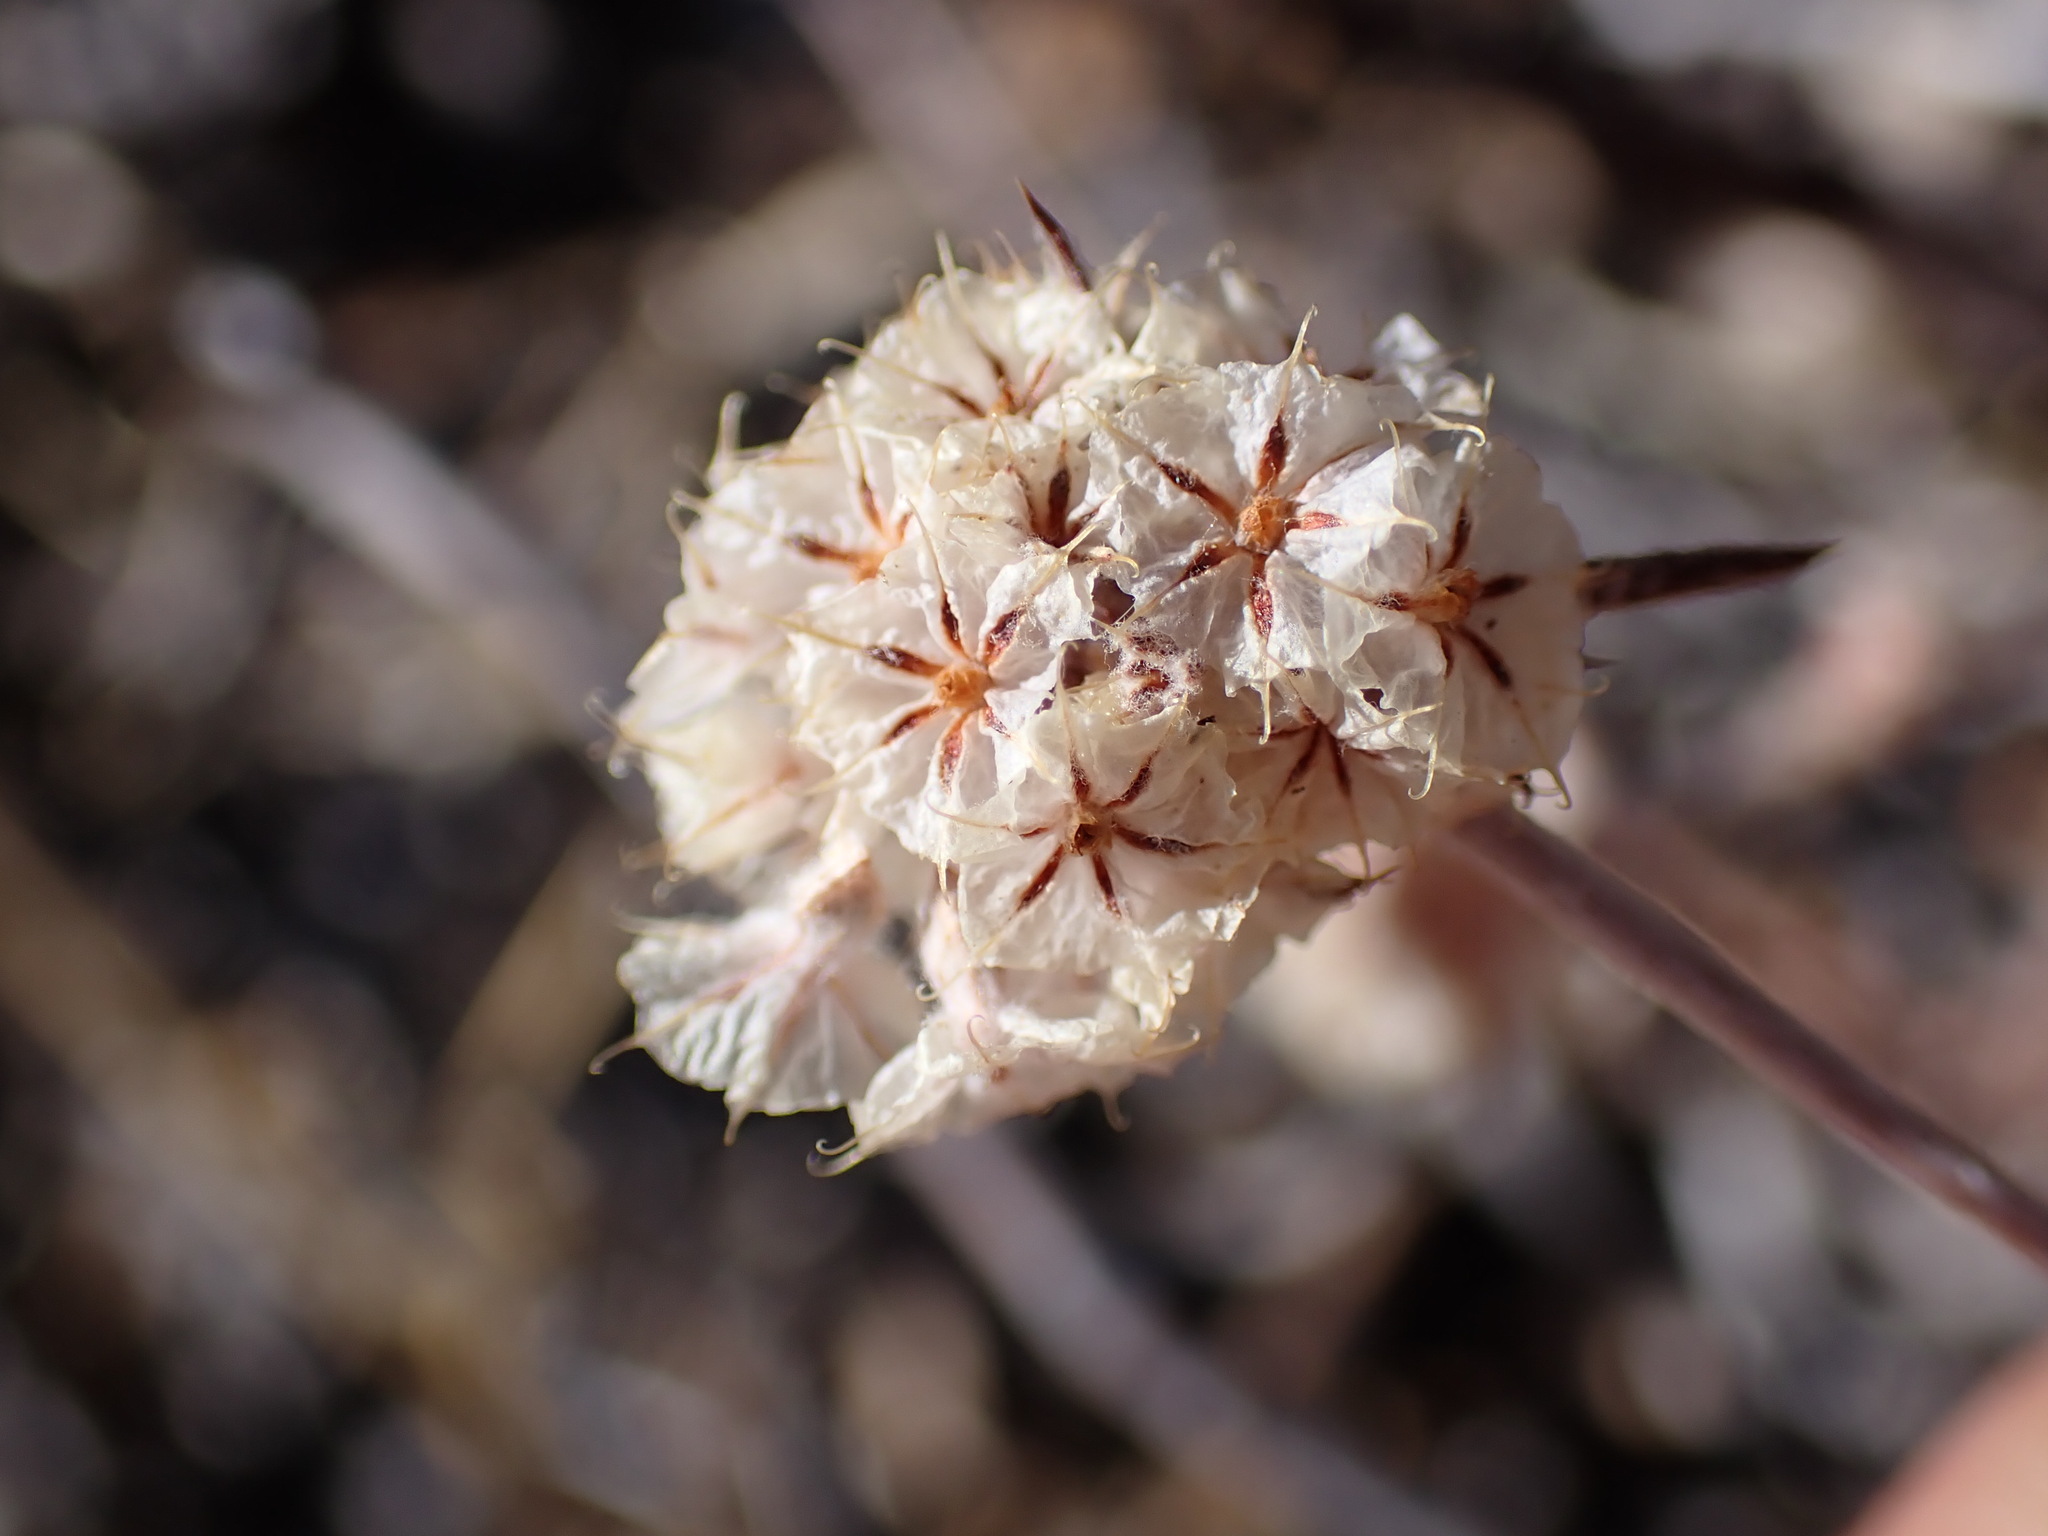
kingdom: Plantae
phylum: Tracheophyta
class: Magnoliopsida
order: Caryophyllales
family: Polygonaceae
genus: Chorizanthe
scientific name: Chorizanthe membranacea
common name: Pink spineflower
